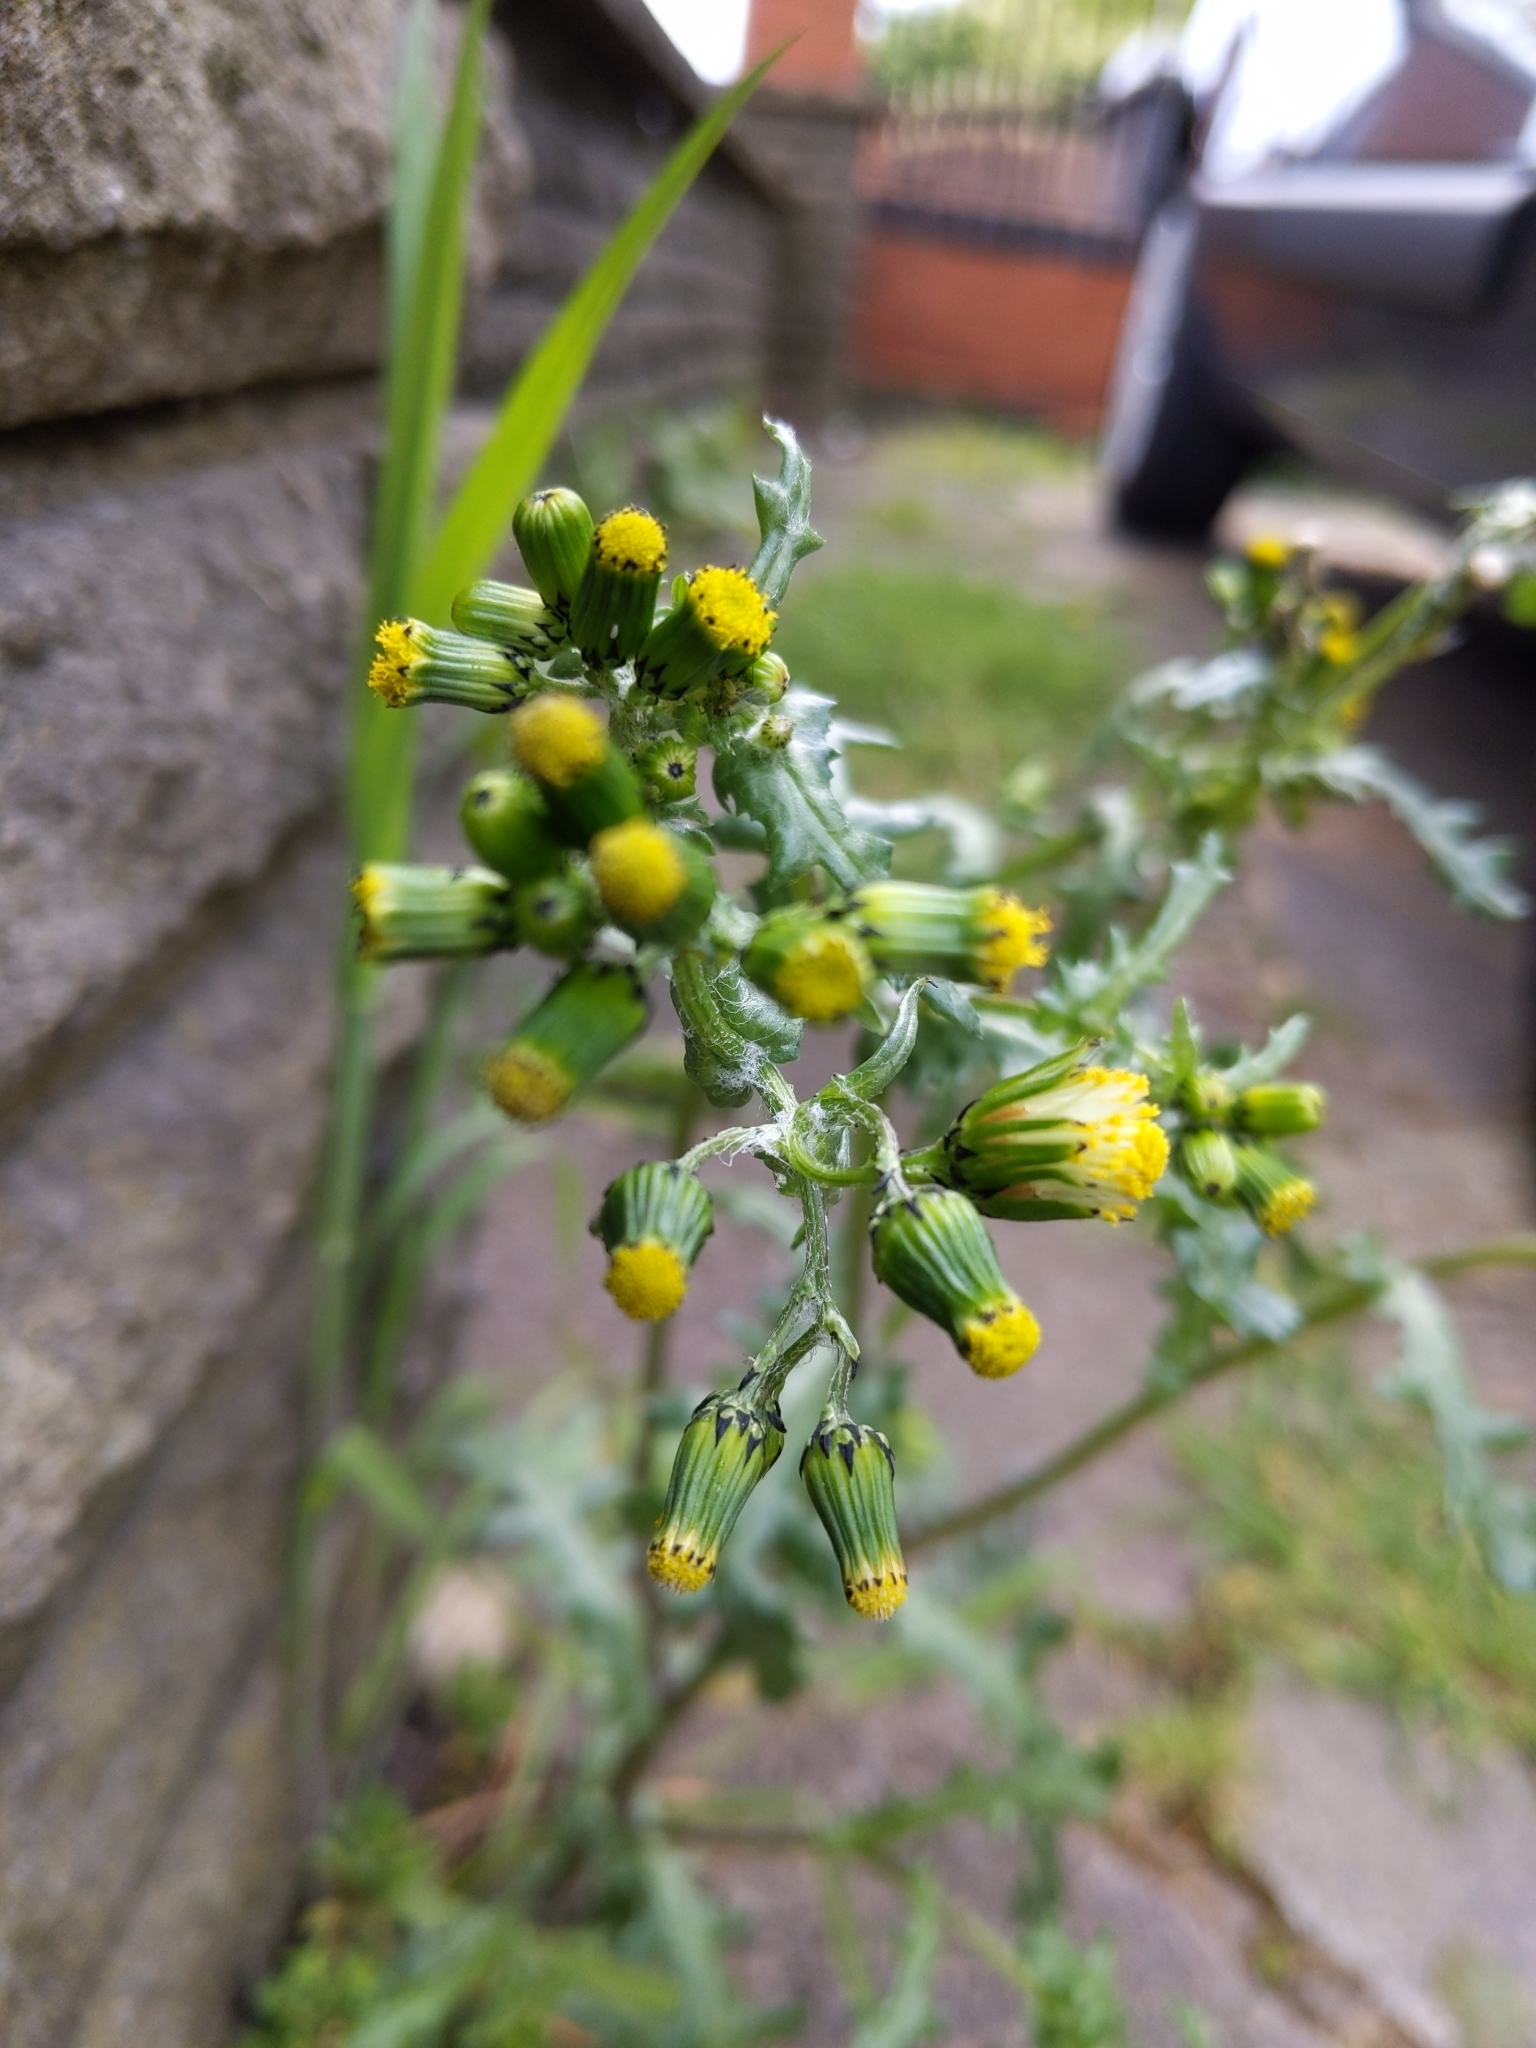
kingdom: Plantae
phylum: Tracheophyta
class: Magnoliopsida
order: Asterales
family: Asteraceae
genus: Senecio
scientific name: Senecio vulgaris
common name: Old-man-in-the-spring
